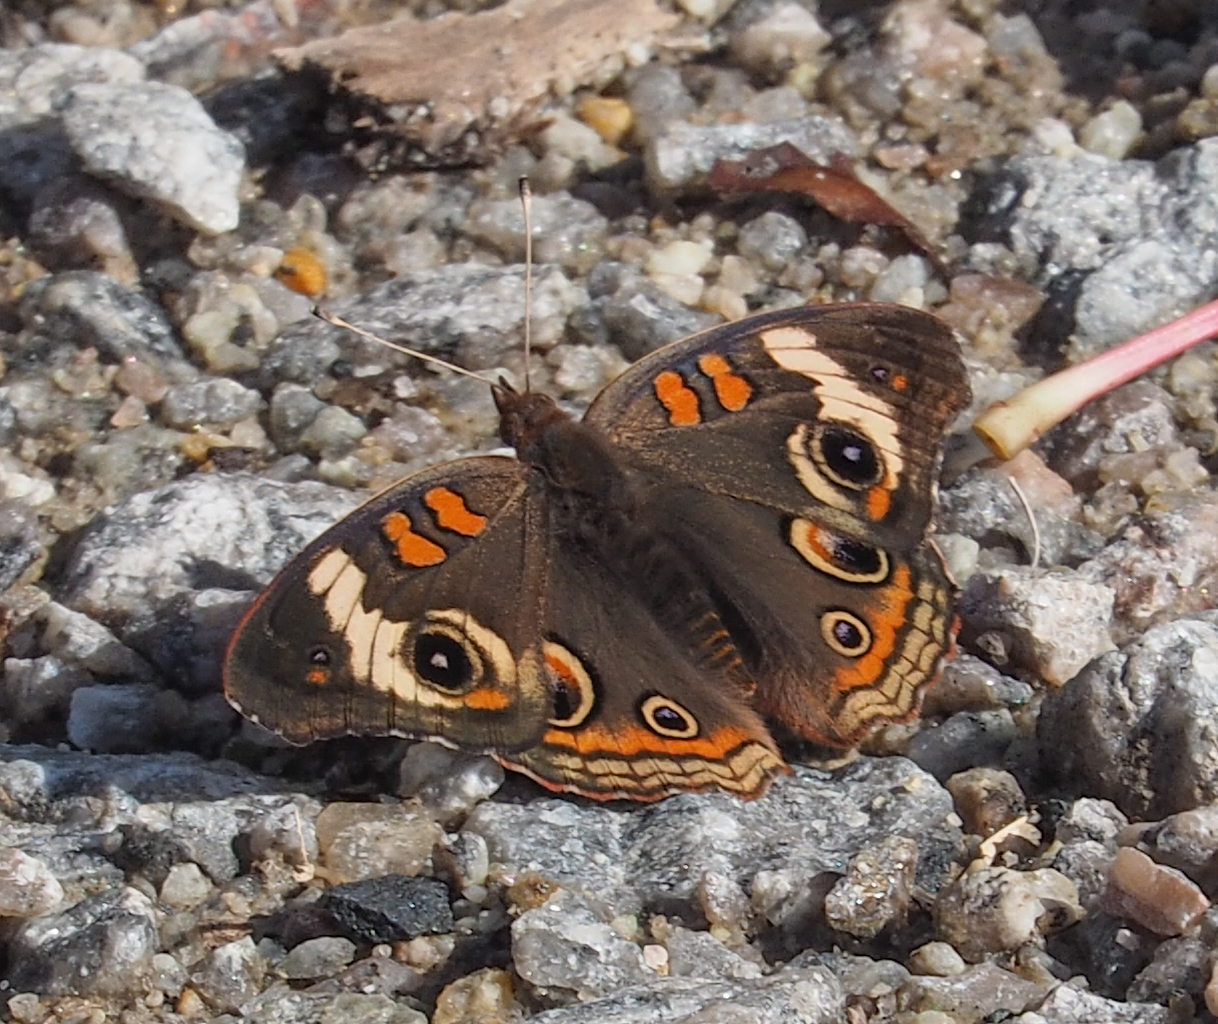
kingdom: Animalia
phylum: Arthropoda
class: Insecta
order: Lepidoptera
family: Nymphalidae
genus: Junonia
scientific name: Junonia coenia
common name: Common buckeye
